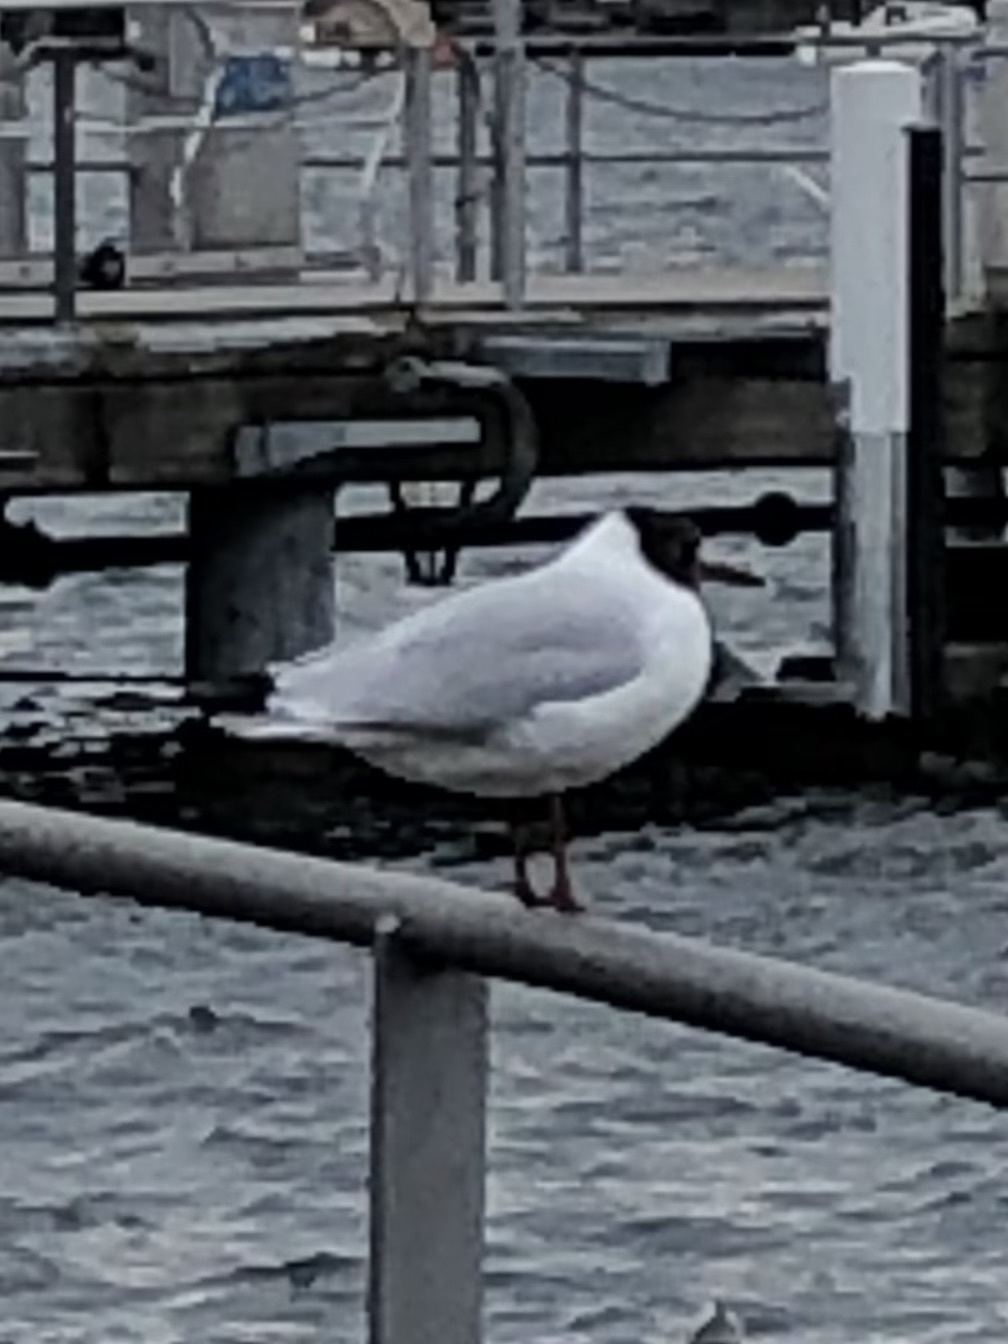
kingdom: Animalia
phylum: Chordata
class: Aves
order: Charadriiformes
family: Laridae
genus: Chroicocephalus
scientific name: Chroicocephalus ridibundus
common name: Black-headed gull
